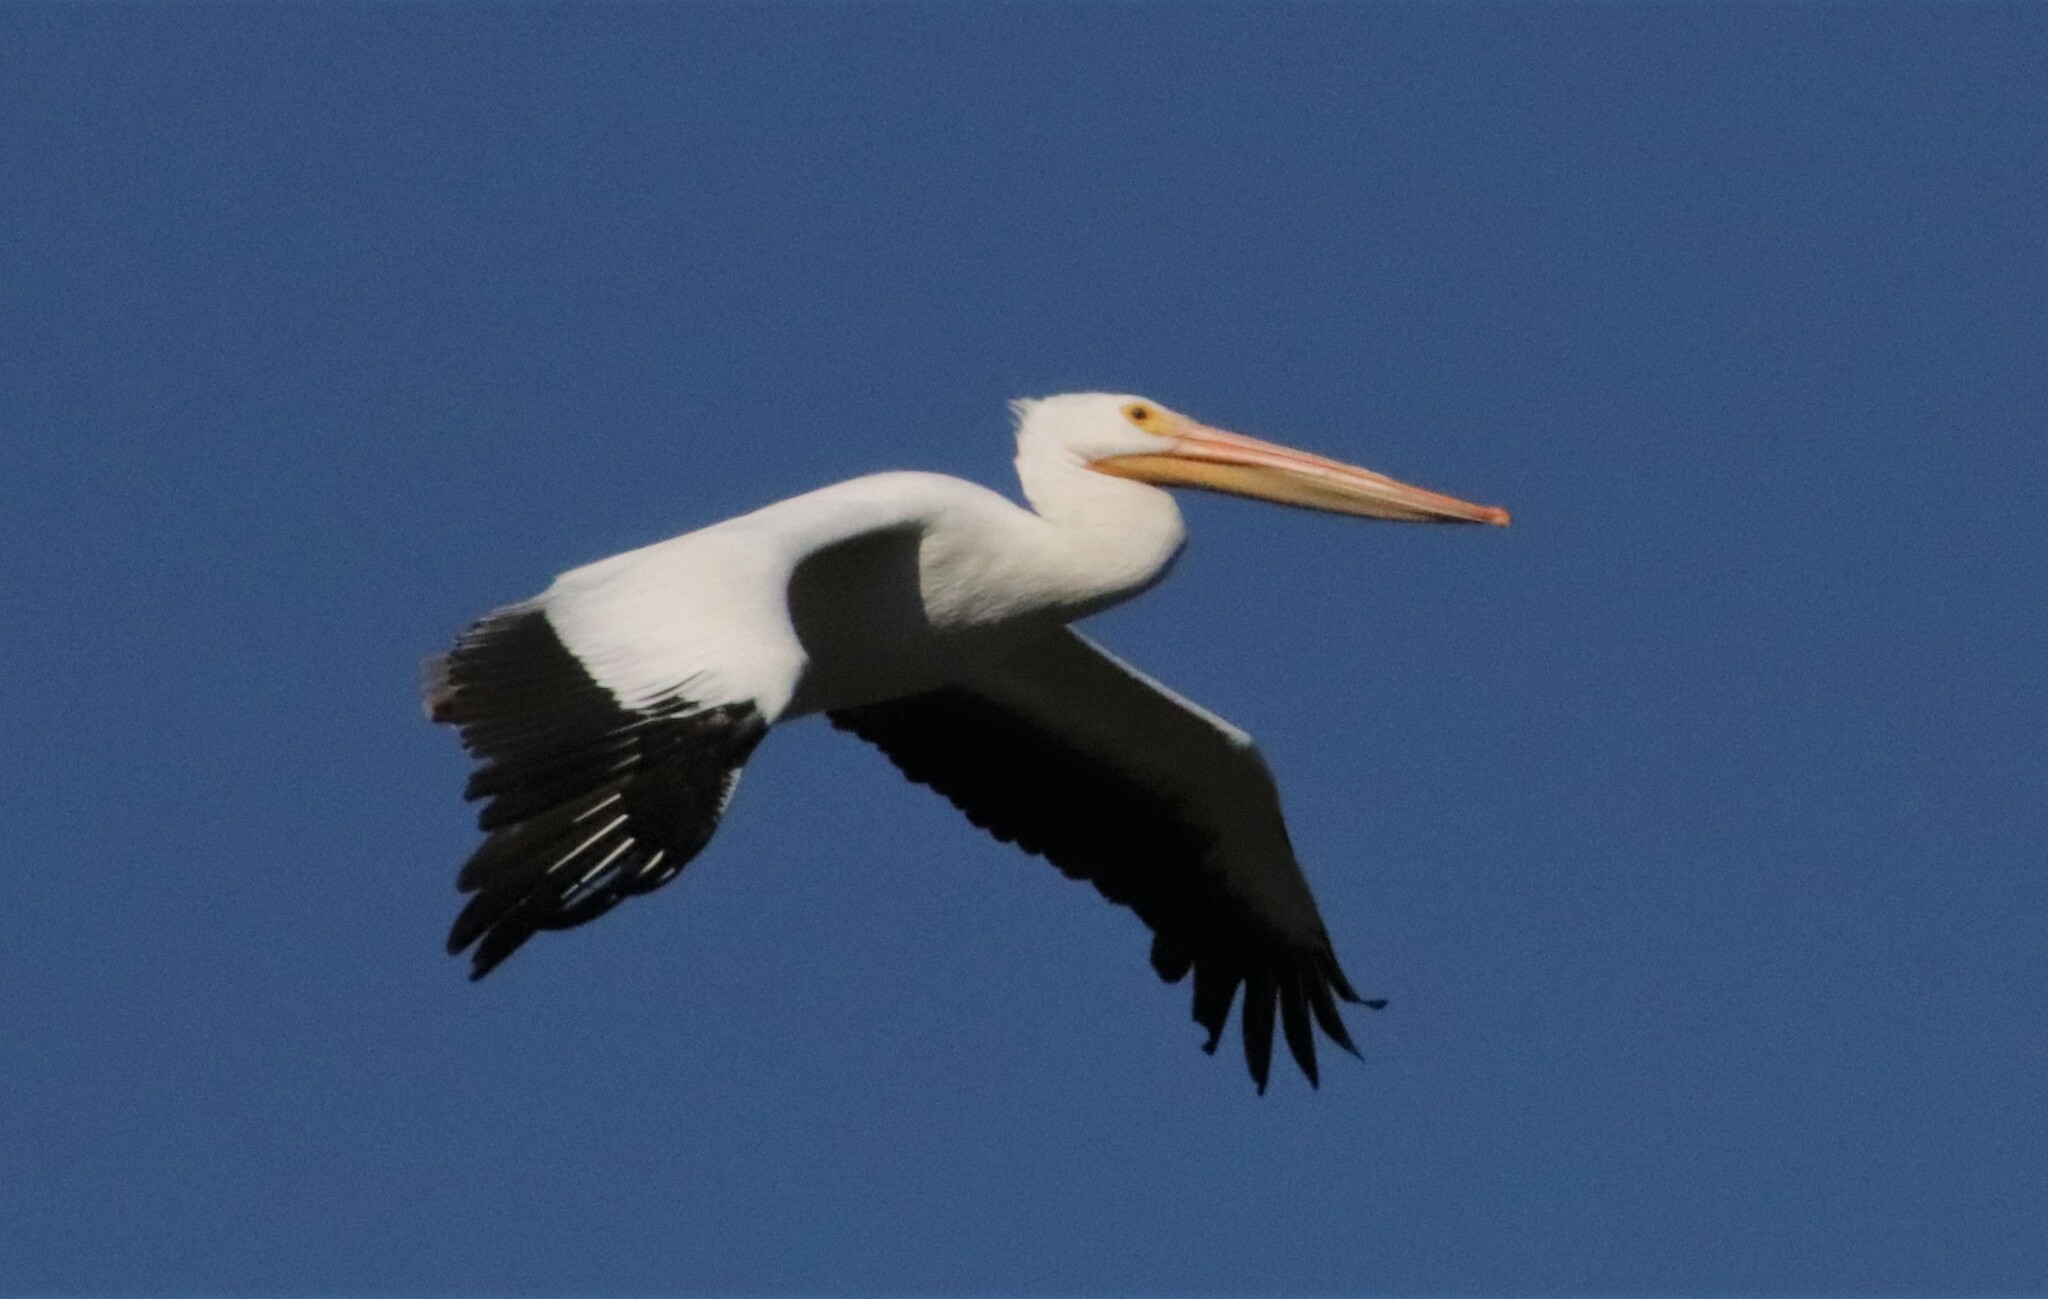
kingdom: Animalia
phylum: Chordata
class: Aves
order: Pelecaniformes
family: Pelecanidae
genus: Pelecanus
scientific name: Pelecanus erythrorhynchos
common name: American white pelican
